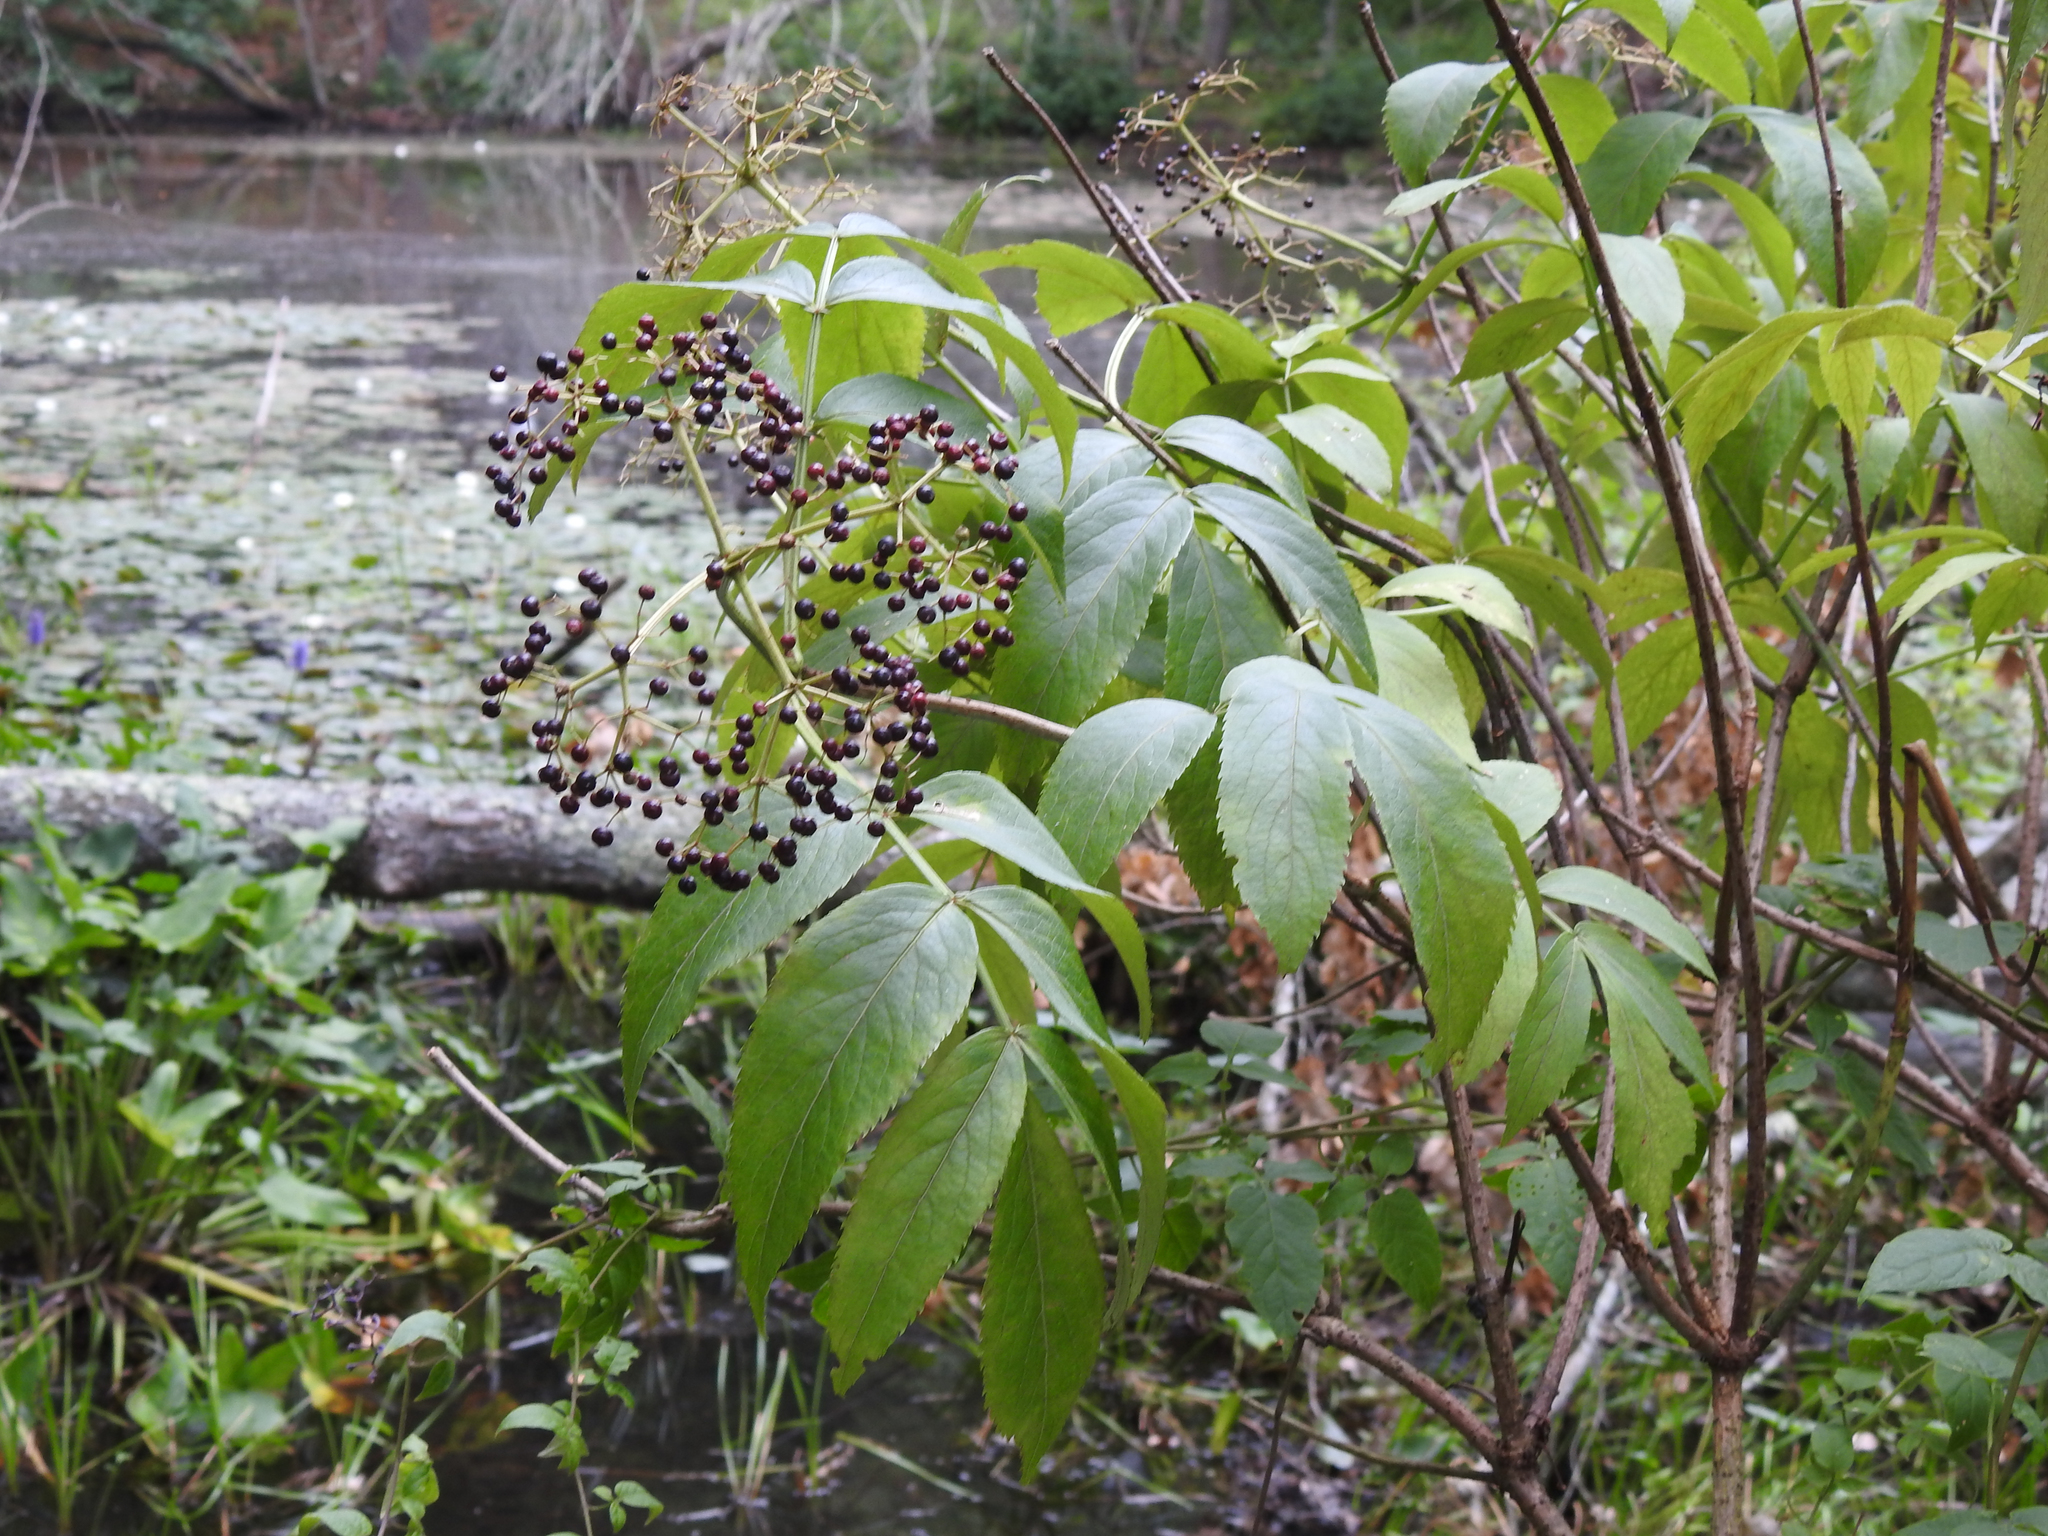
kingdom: Plantae
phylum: Tracheophyta
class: Magnoliopsida
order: Dipsacales
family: Viburnaceae
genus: Sambucus
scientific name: Sambucus canadensis
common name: American elder
